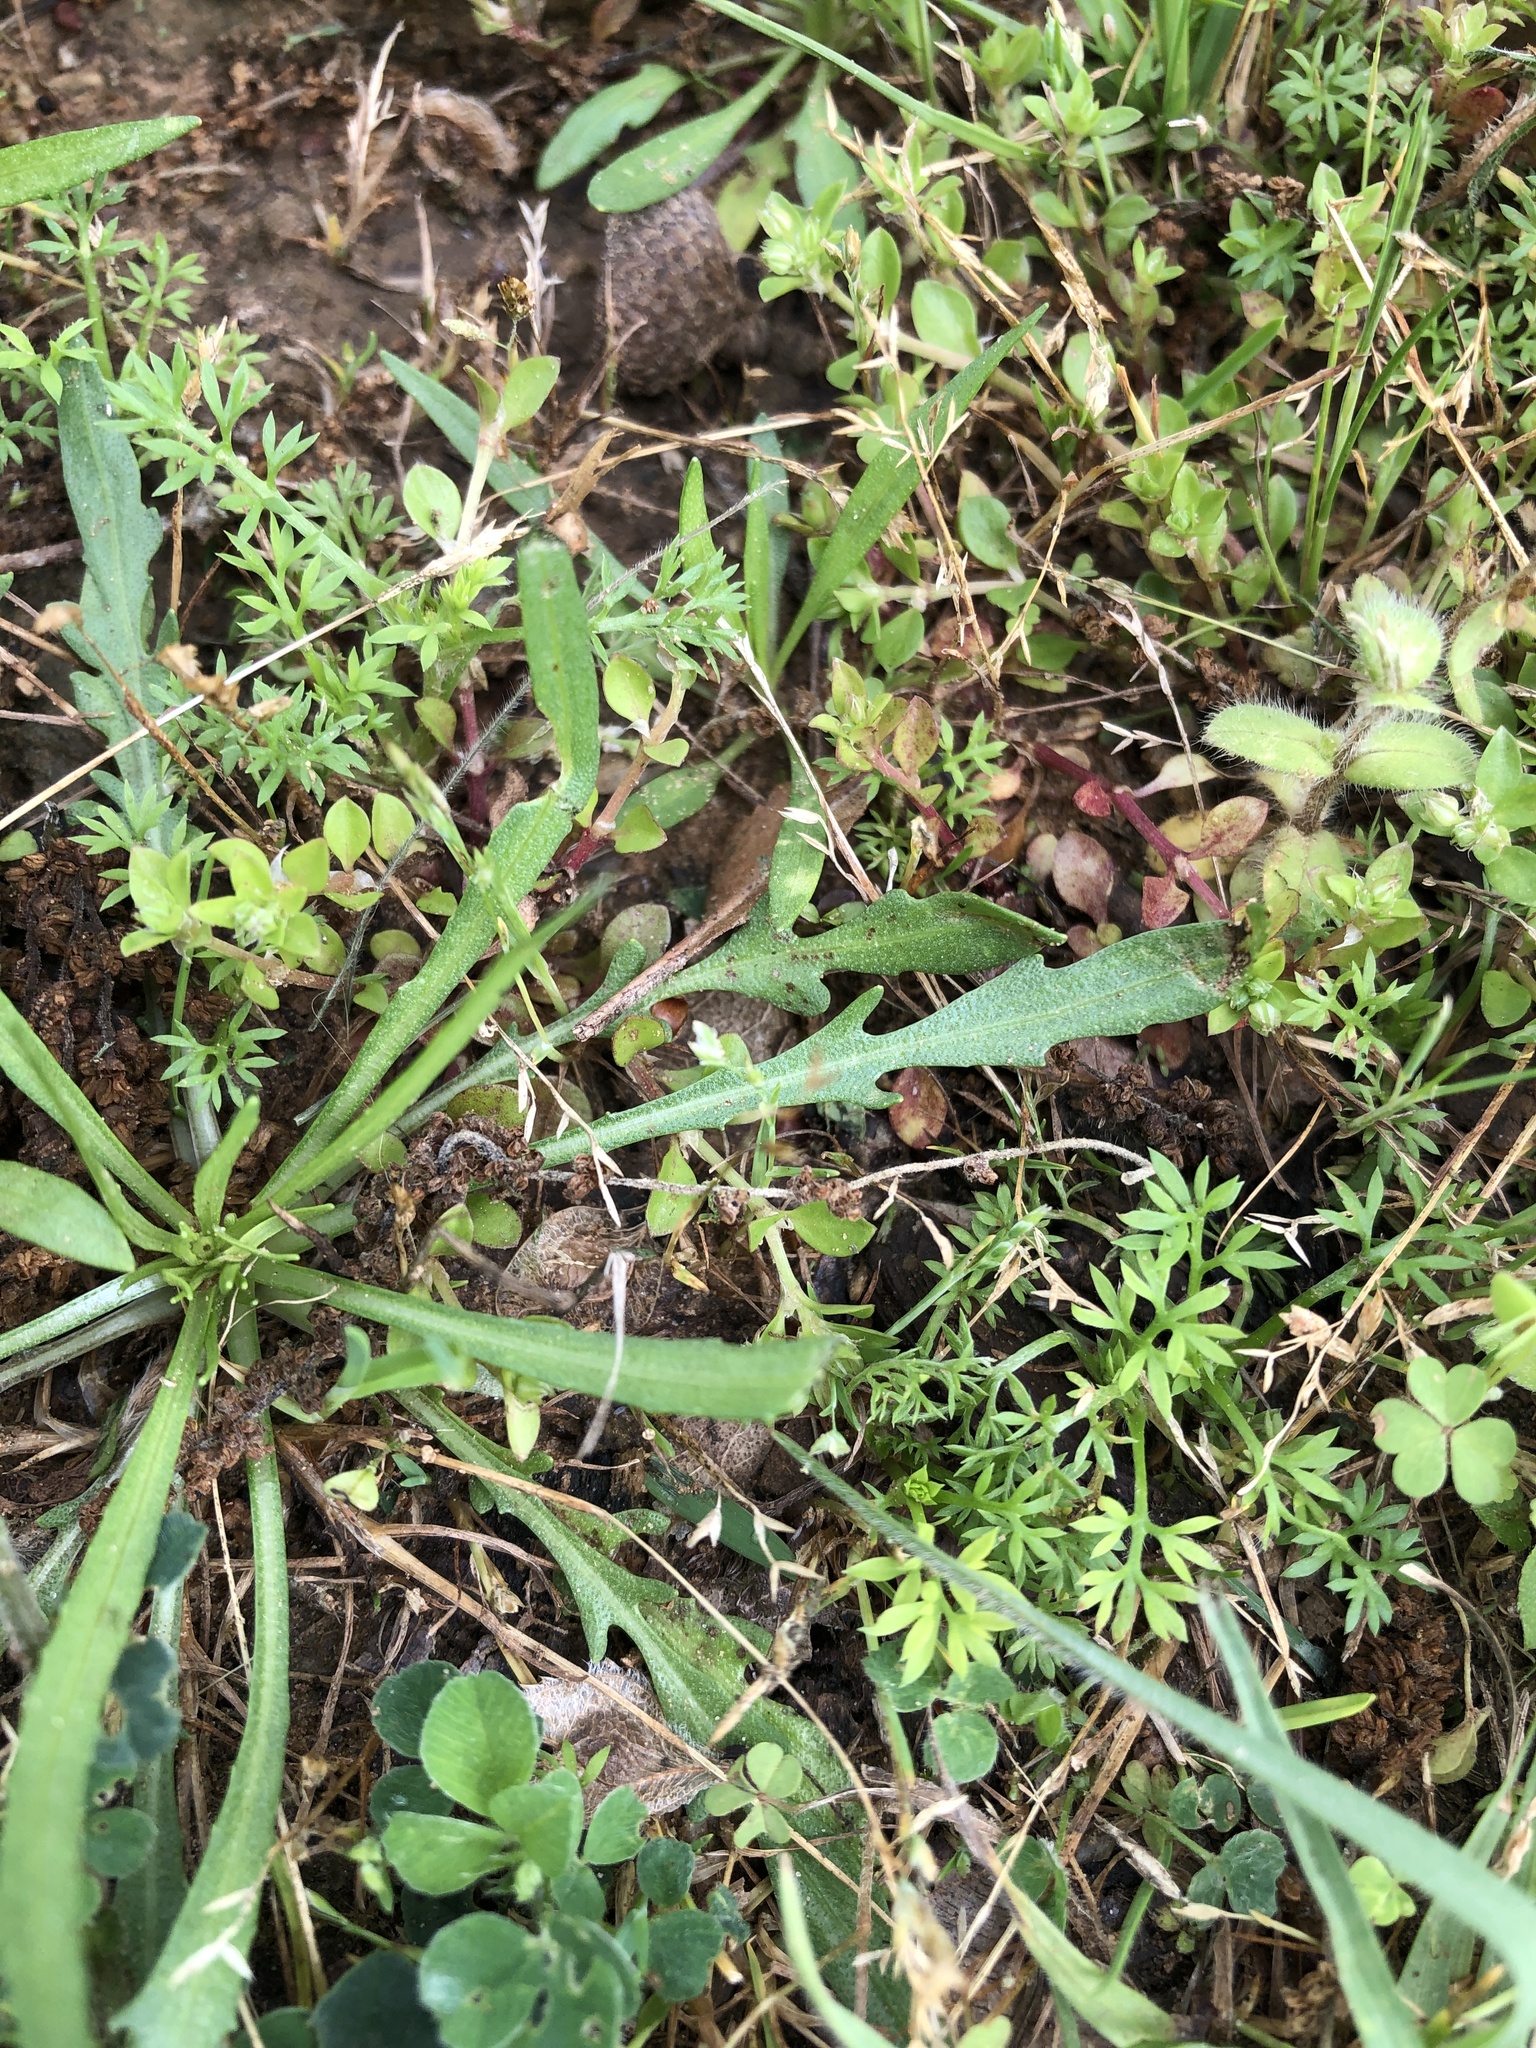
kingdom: Plantae
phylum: Tracheophyta
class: Magnoliopsida
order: Asterales
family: Asteraceae
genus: Soliva
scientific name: Soliva sessilis
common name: Field burrweed
